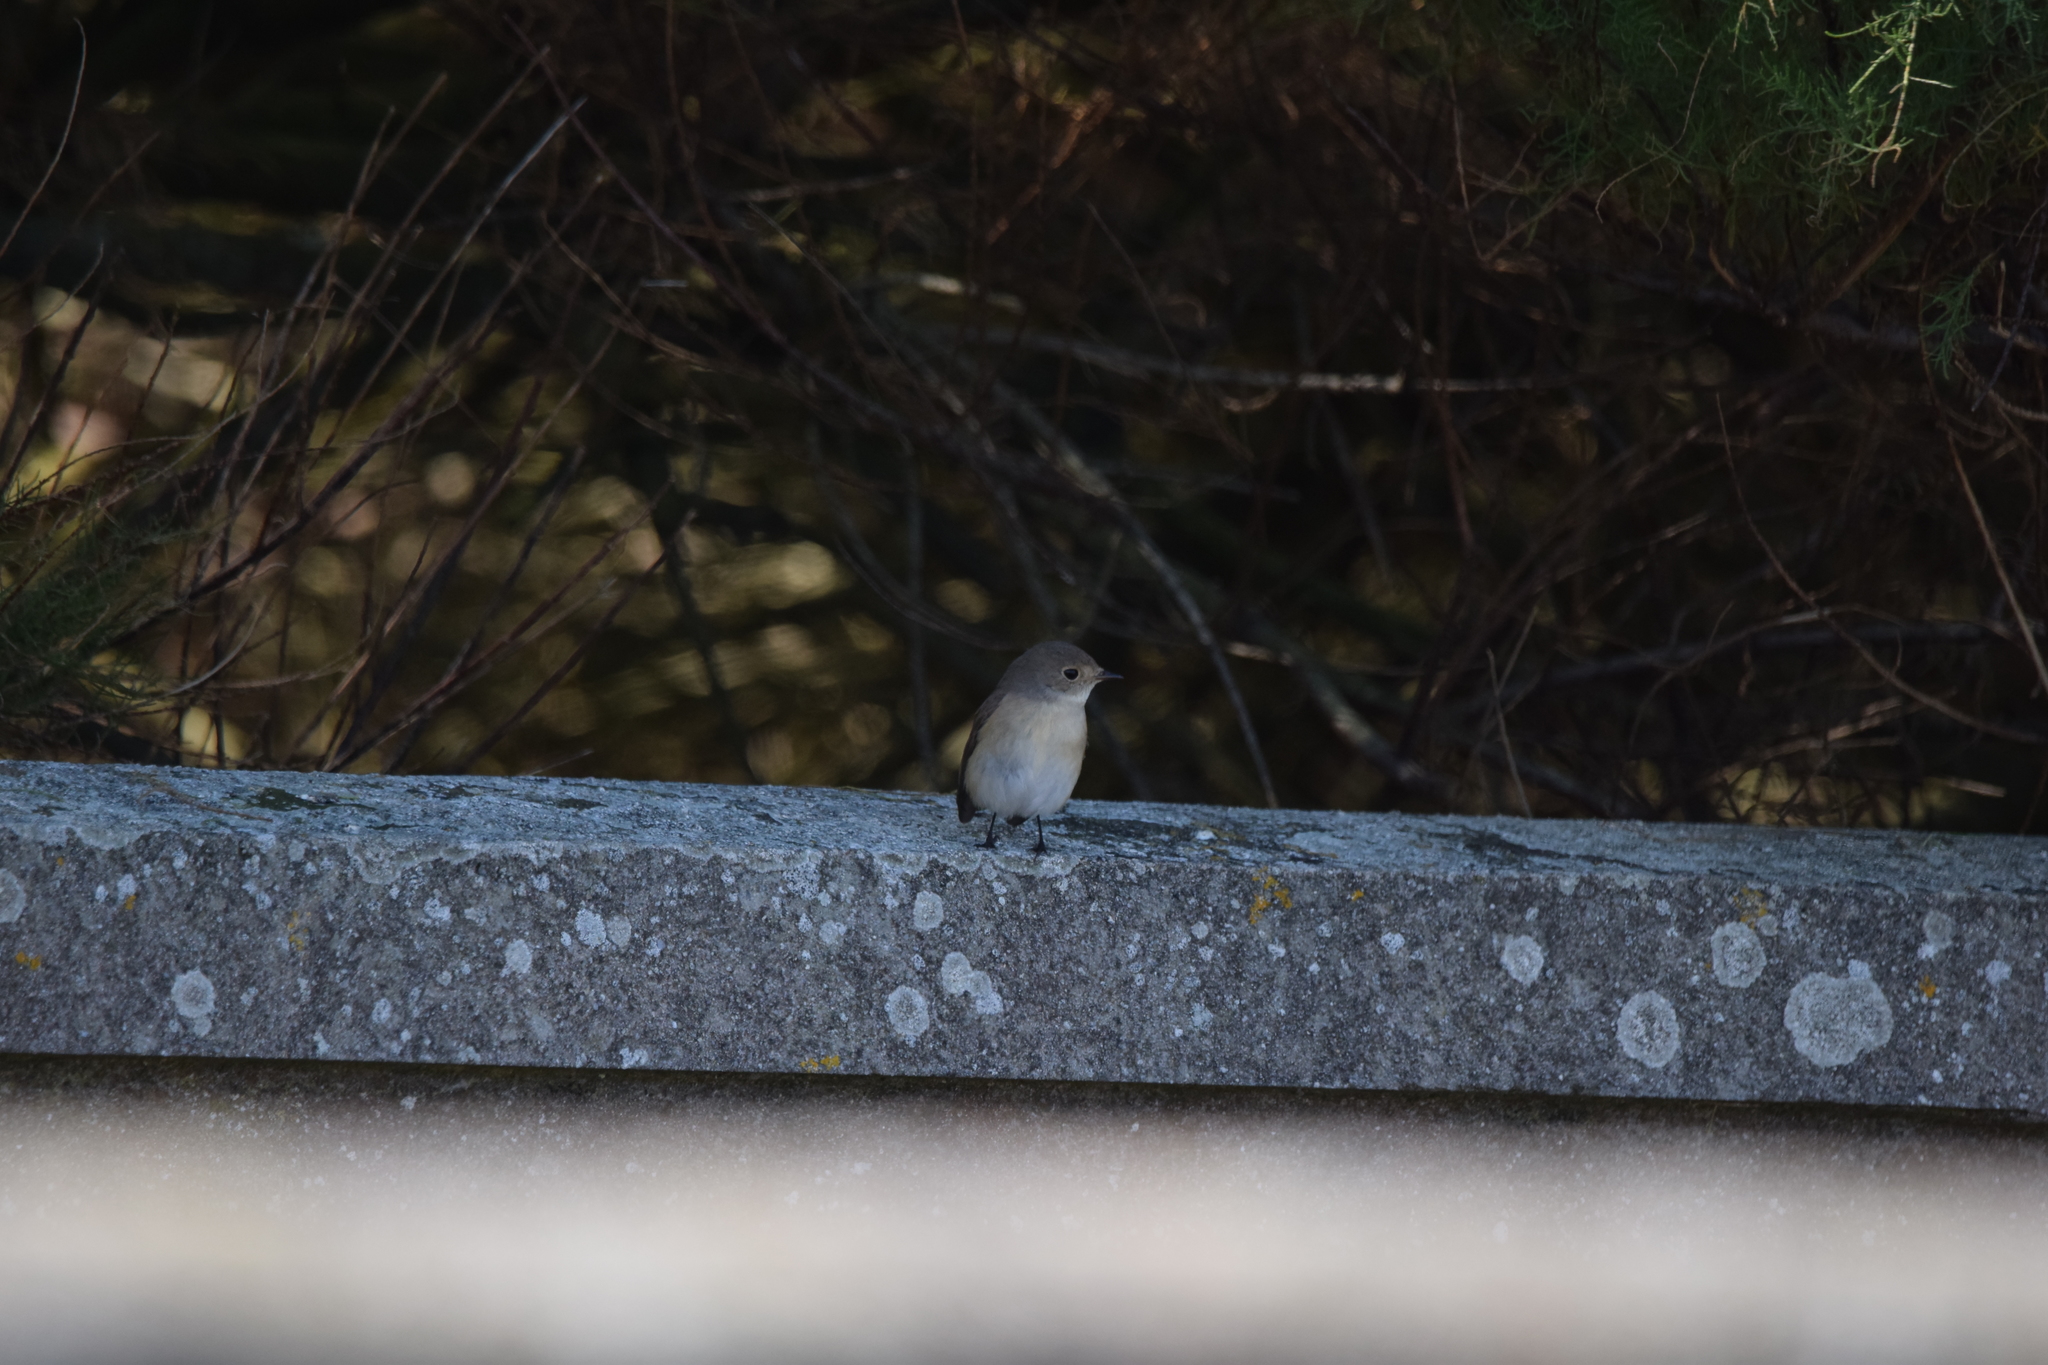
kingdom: Animalia
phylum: Chordata
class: Aves
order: Passeriformes
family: Muscicapidae
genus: Ficedula
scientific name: Ficedula parva
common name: Red-breasted flycatcher
